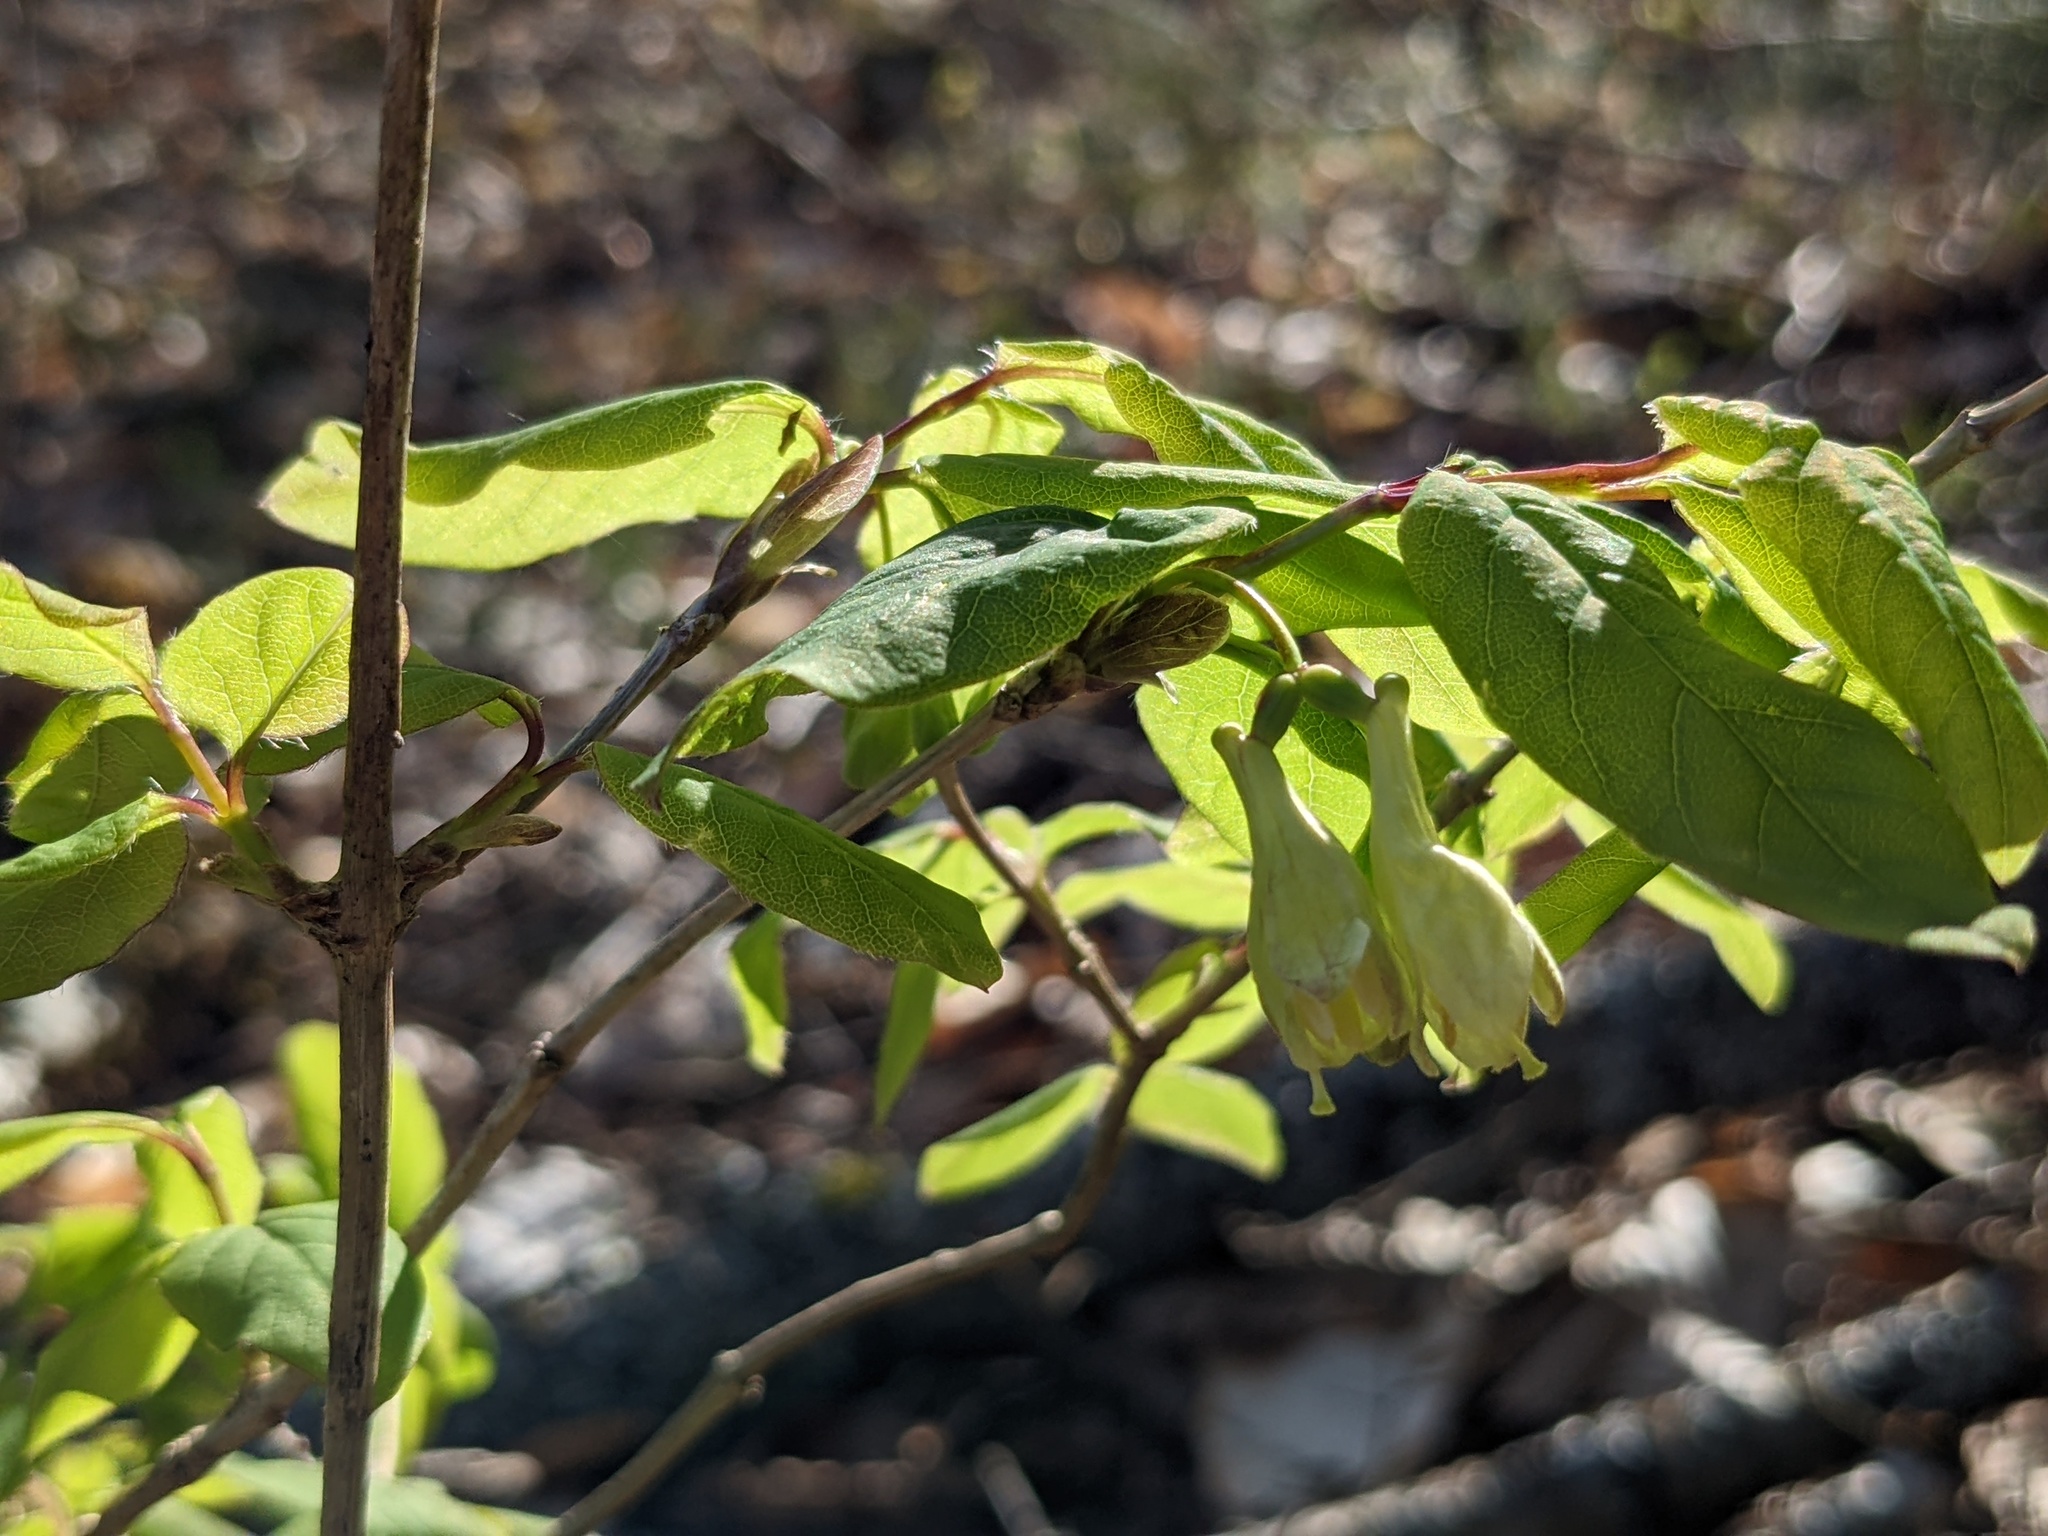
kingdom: Plantae
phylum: Tracheophyta
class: Magnoliopsida
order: Dipsacales
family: Caprifoliaceae
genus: Lonicera
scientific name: Lonicera canadensis
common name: American fly-honeysuckle
